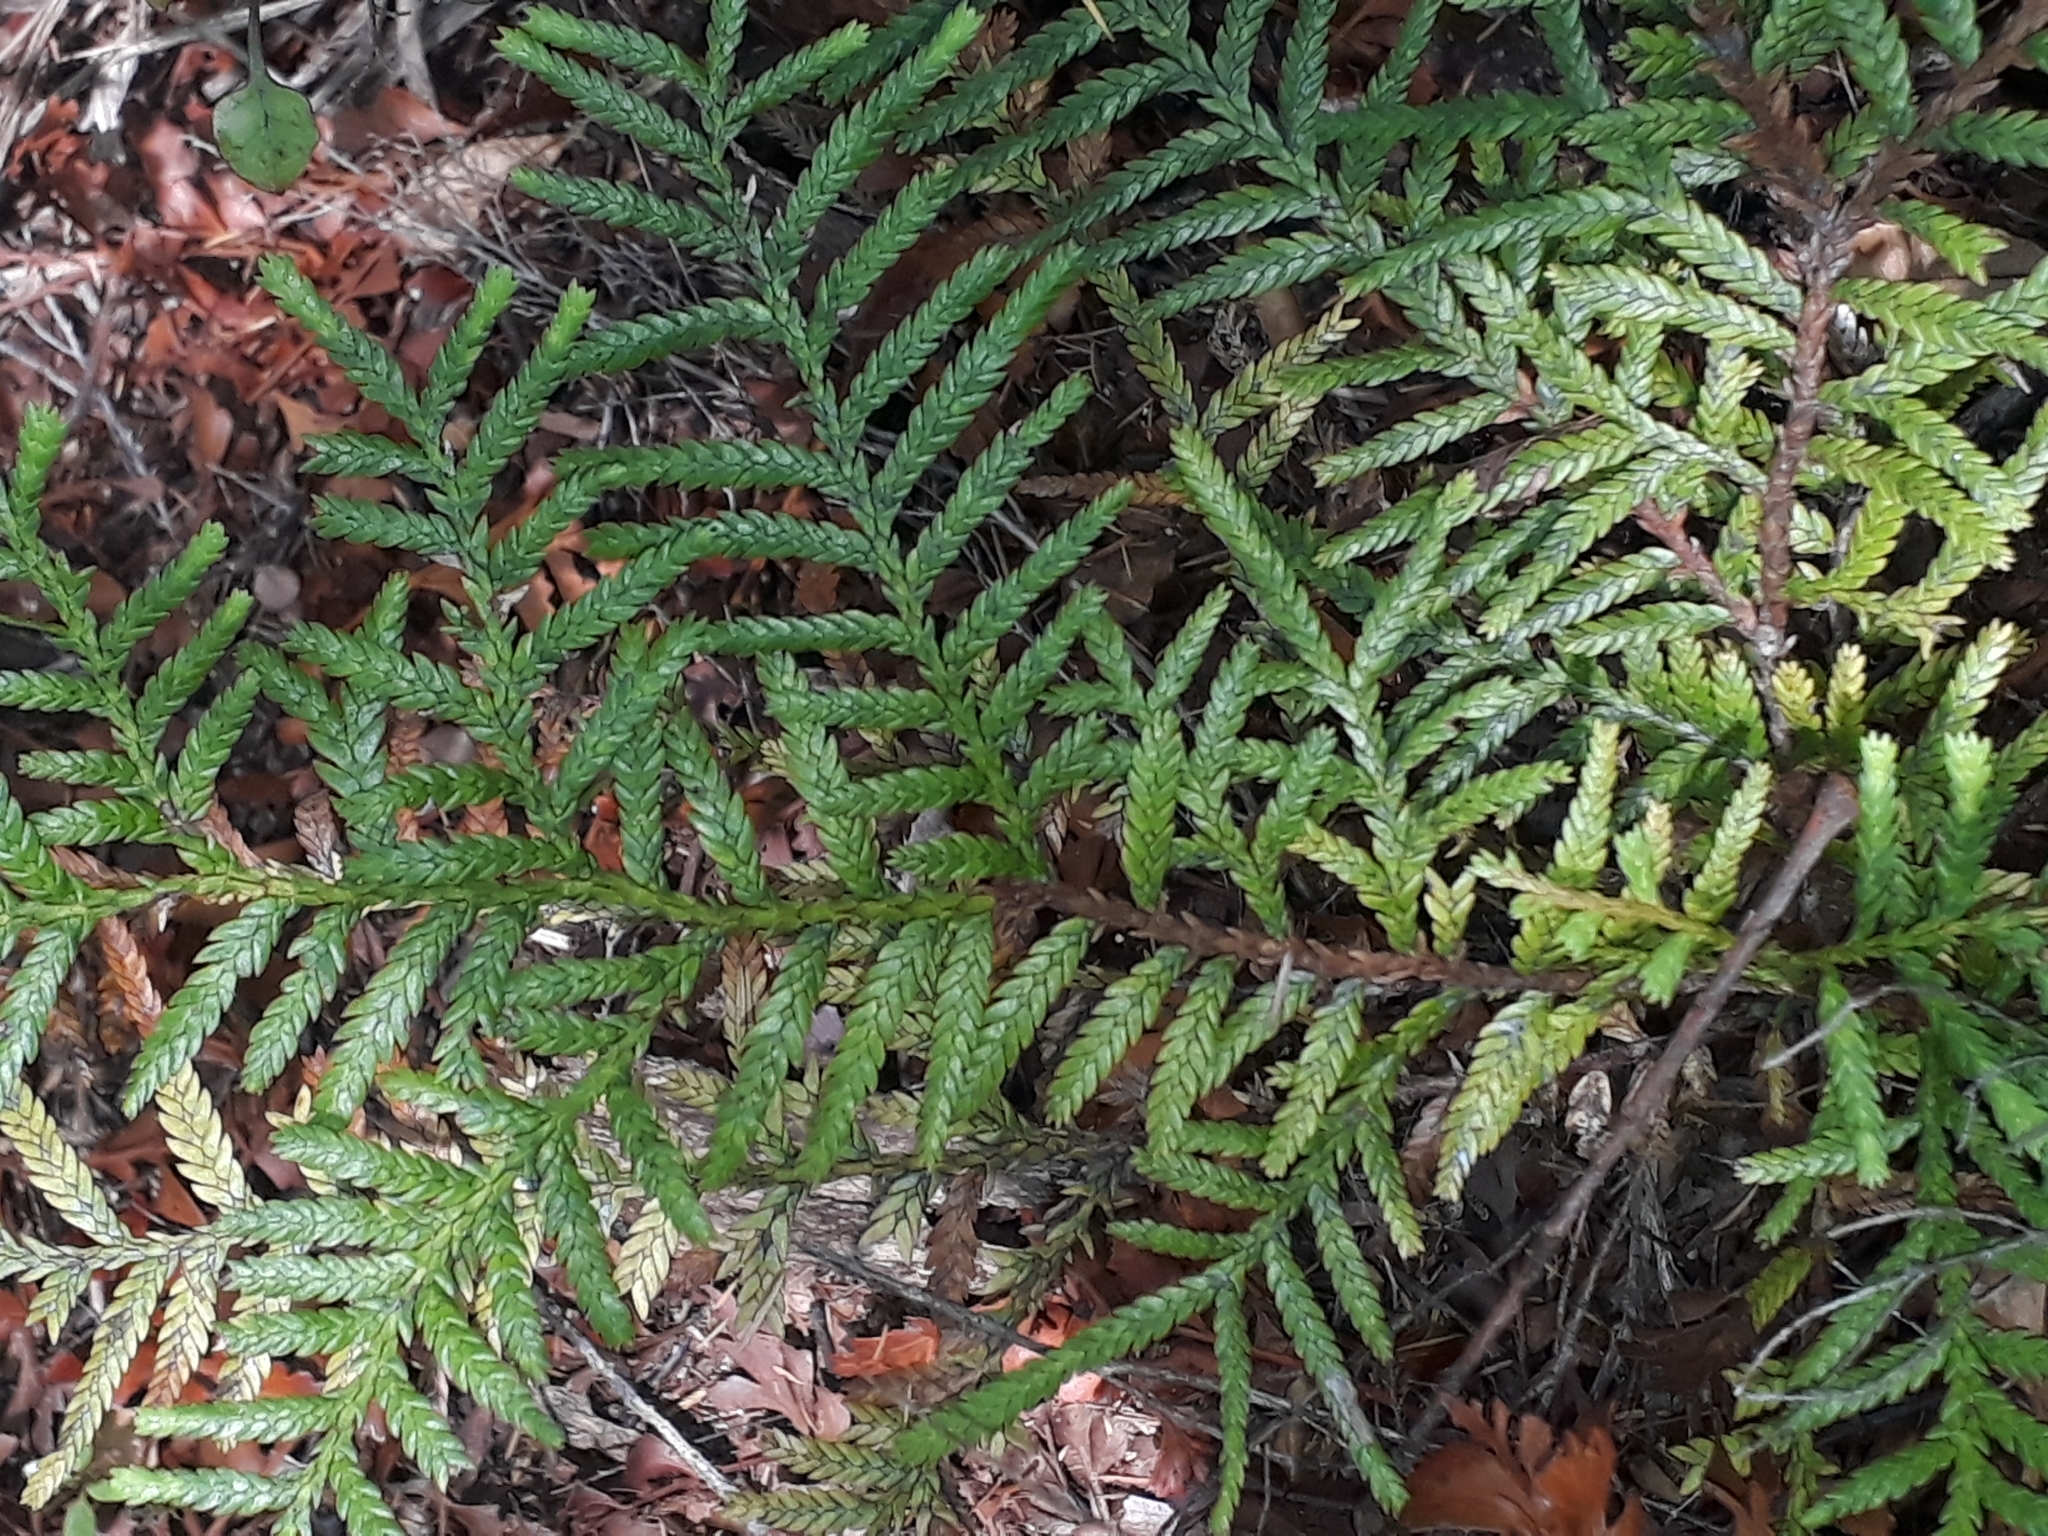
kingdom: Plantae
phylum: Tracheophyta
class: Pinopsida
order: Pinales
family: Cupressaceae
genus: Libocedrus
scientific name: Libocedrus plumosa
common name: New zealand cedar
